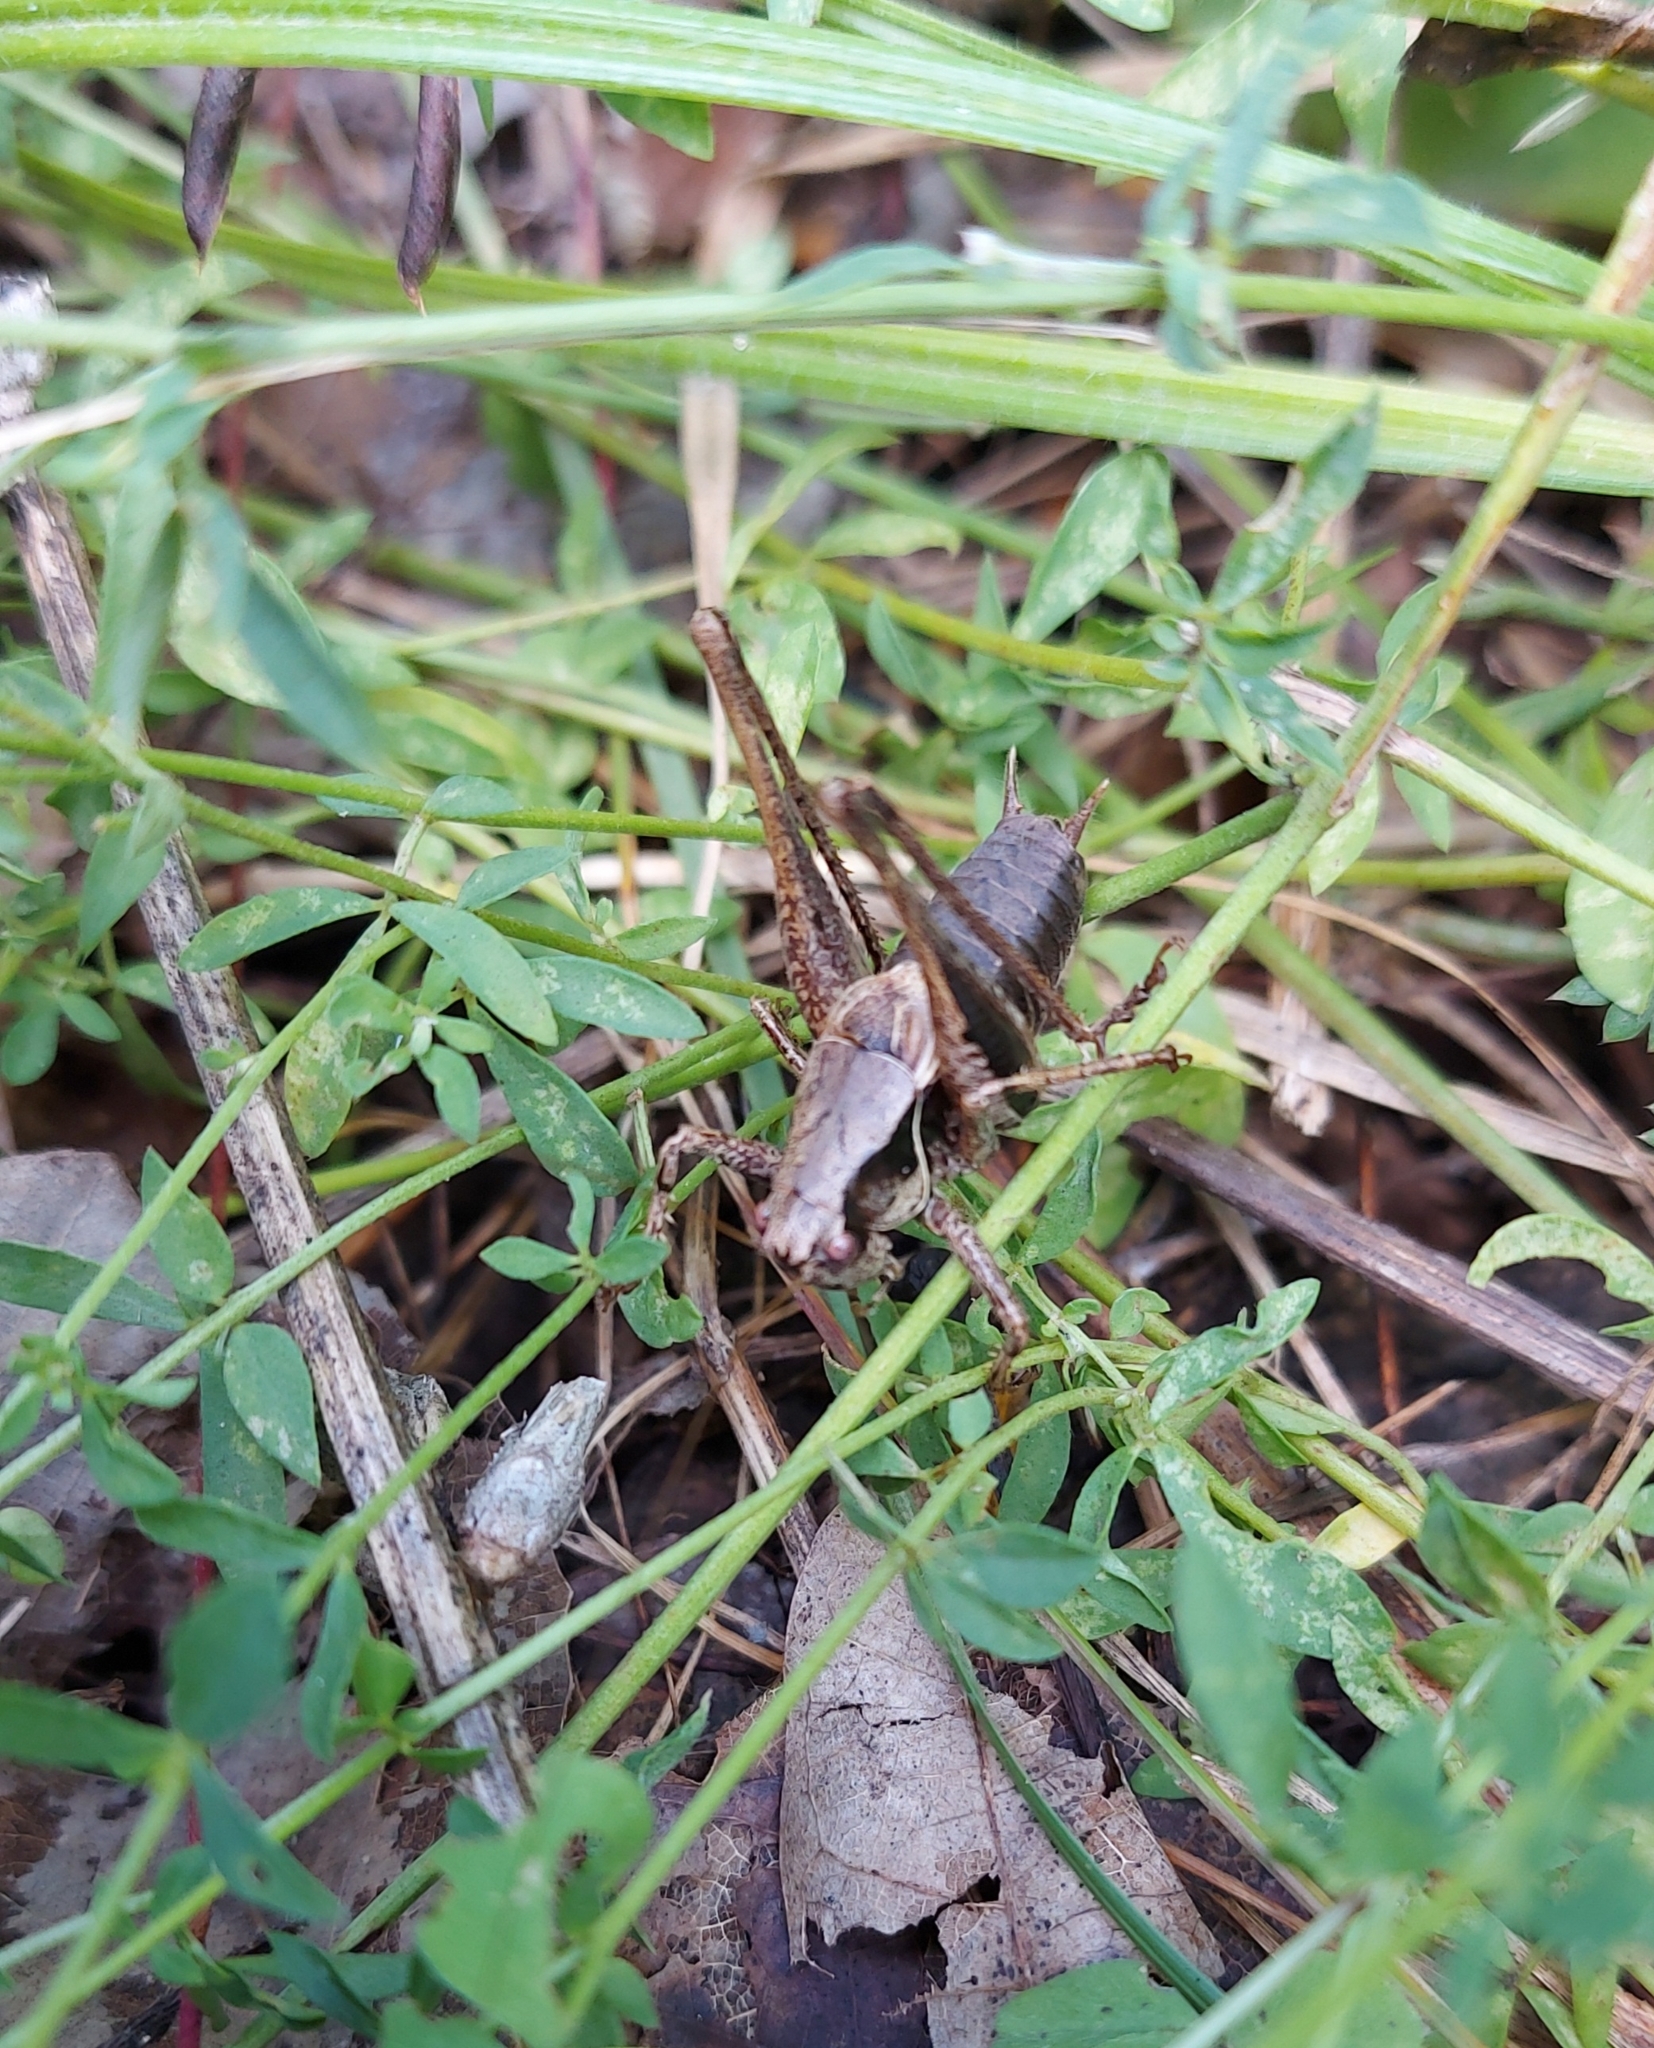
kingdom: Animalia
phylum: Arthropoda
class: Insecta
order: Orthoptera
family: Tettigoniidae
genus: Pholidoptera
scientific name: Pholidoptera griseoaptera
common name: Dark bush-cricket
